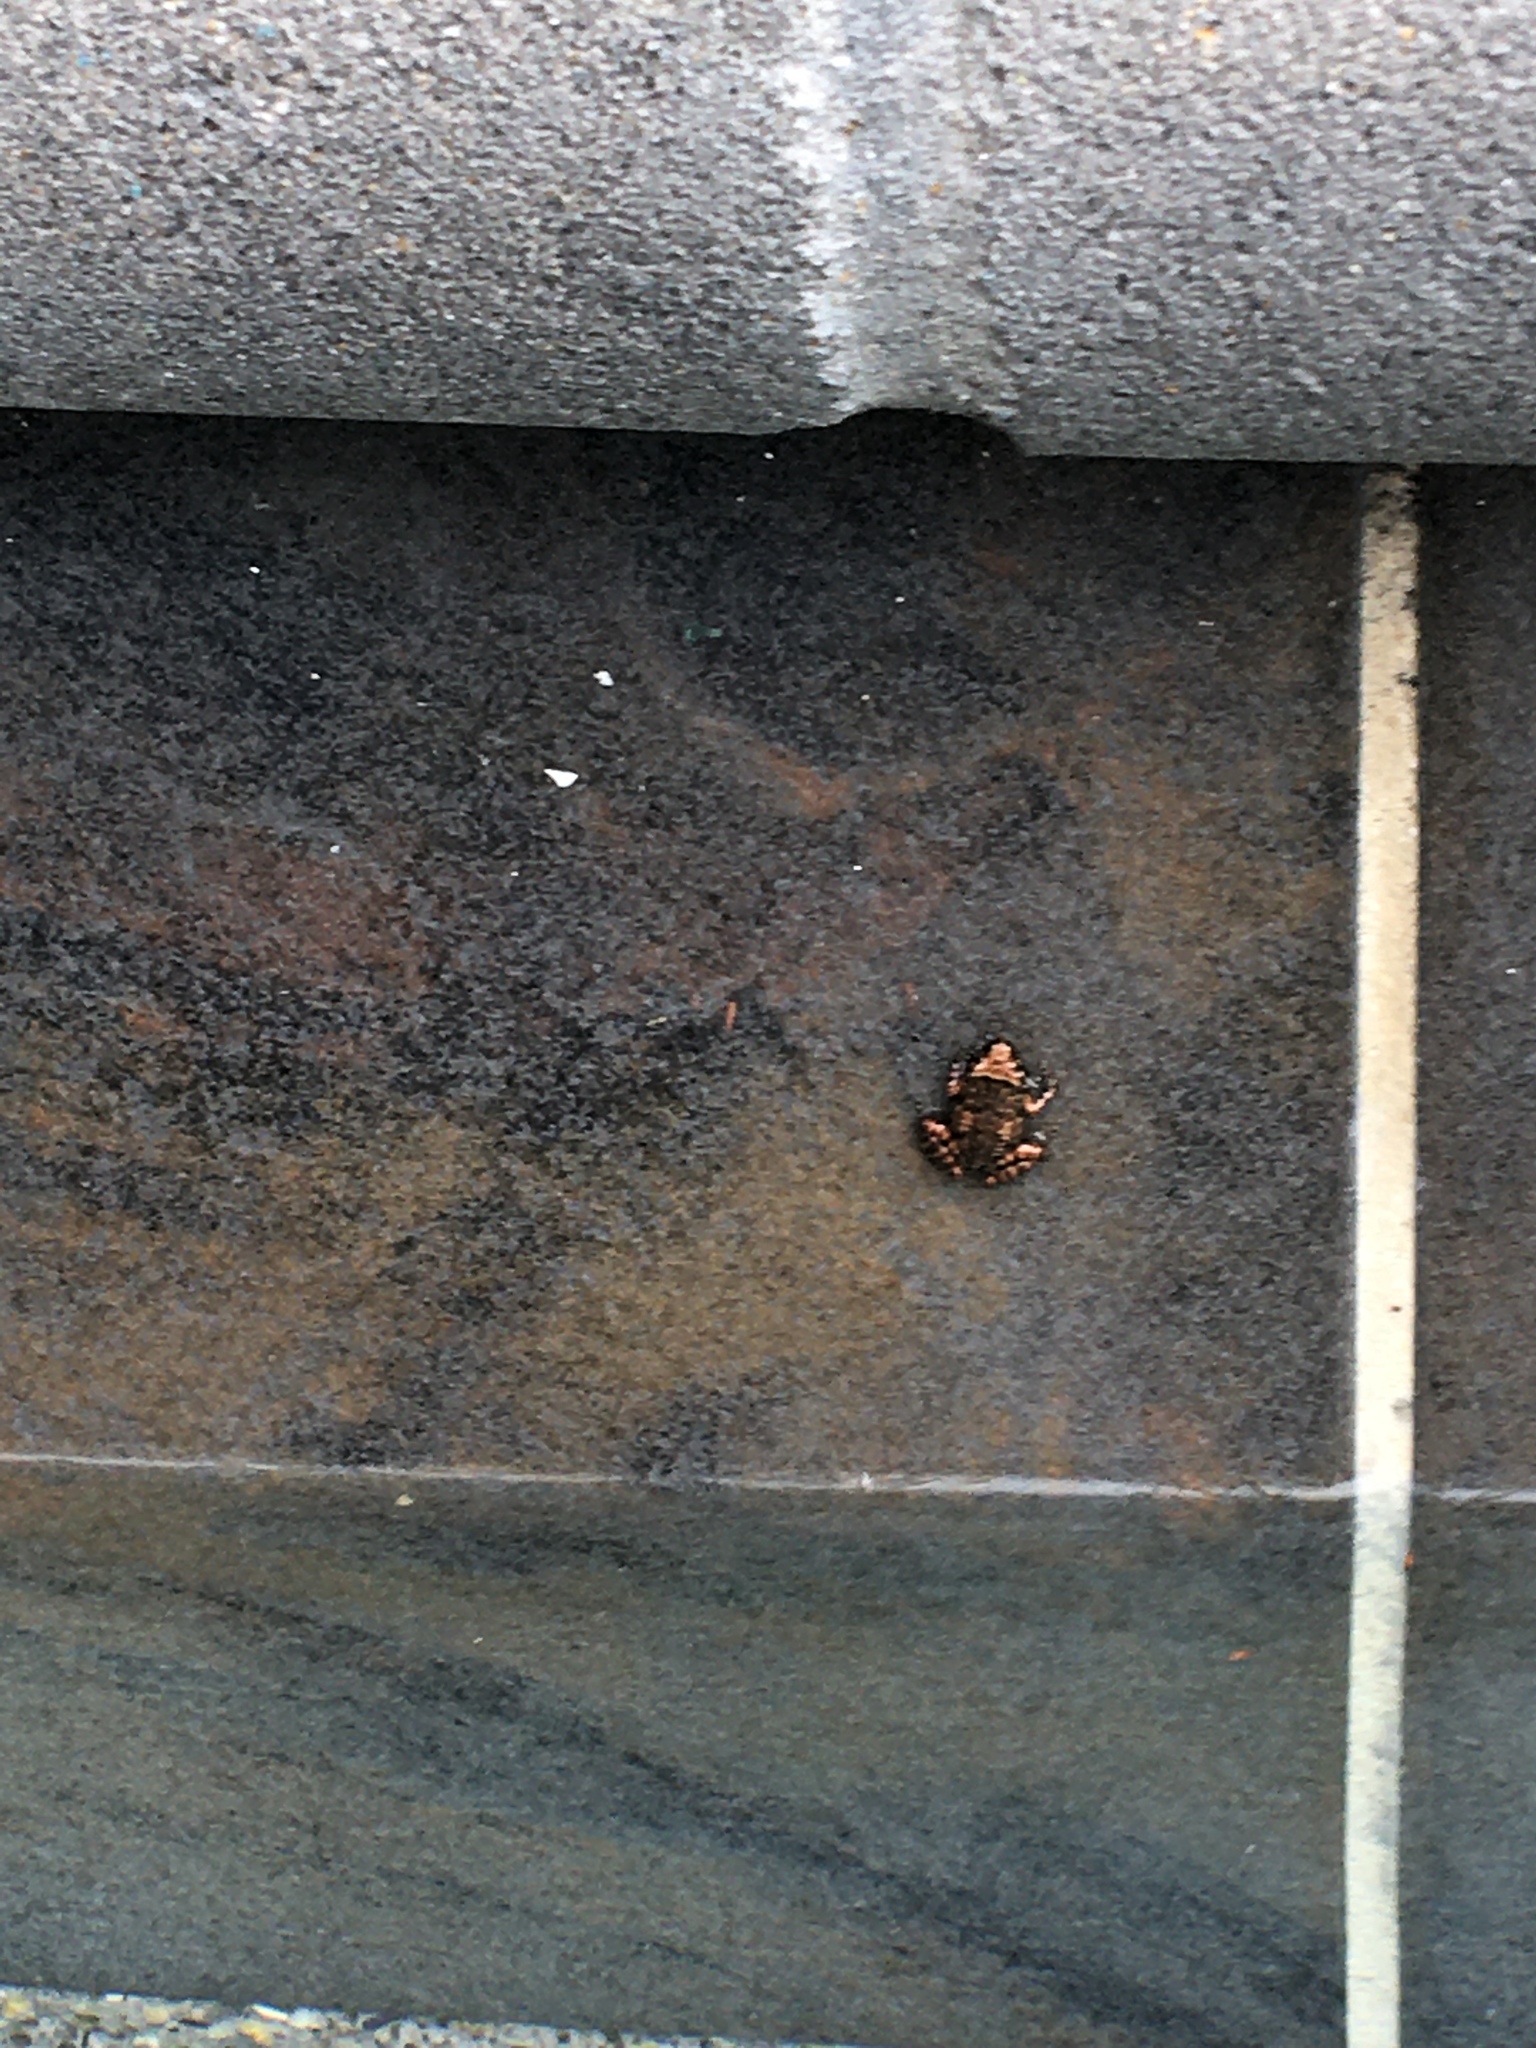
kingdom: Animalia
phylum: Chordata
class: Amphibia
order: Anura
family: Eleutherodactylidae
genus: Eleutherodactylus
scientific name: Eleutherodactylus planirostris
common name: Greenhouse frog
